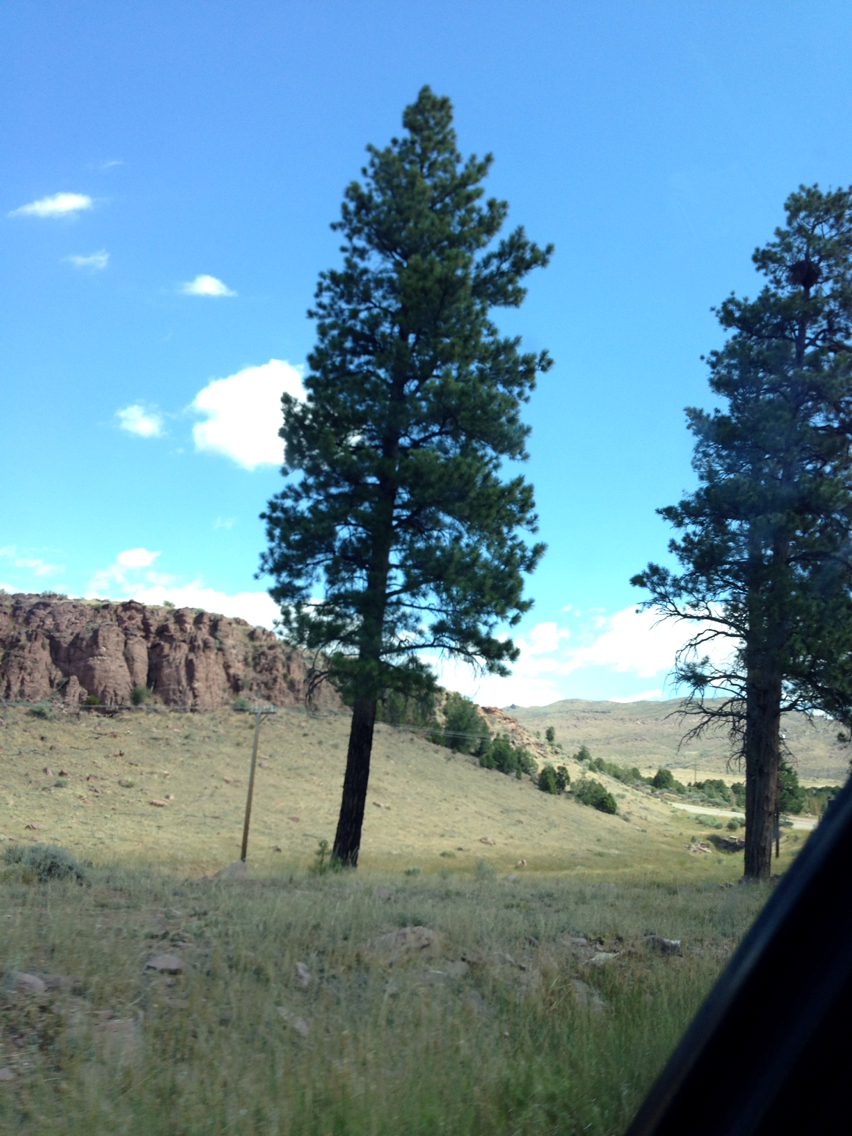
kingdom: Plantae
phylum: Tracheophyta
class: Pinopsida
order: Pinales
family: Pinaceae
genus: Pinus
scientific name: Pinus ponderosa
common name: Western yellow-pine
